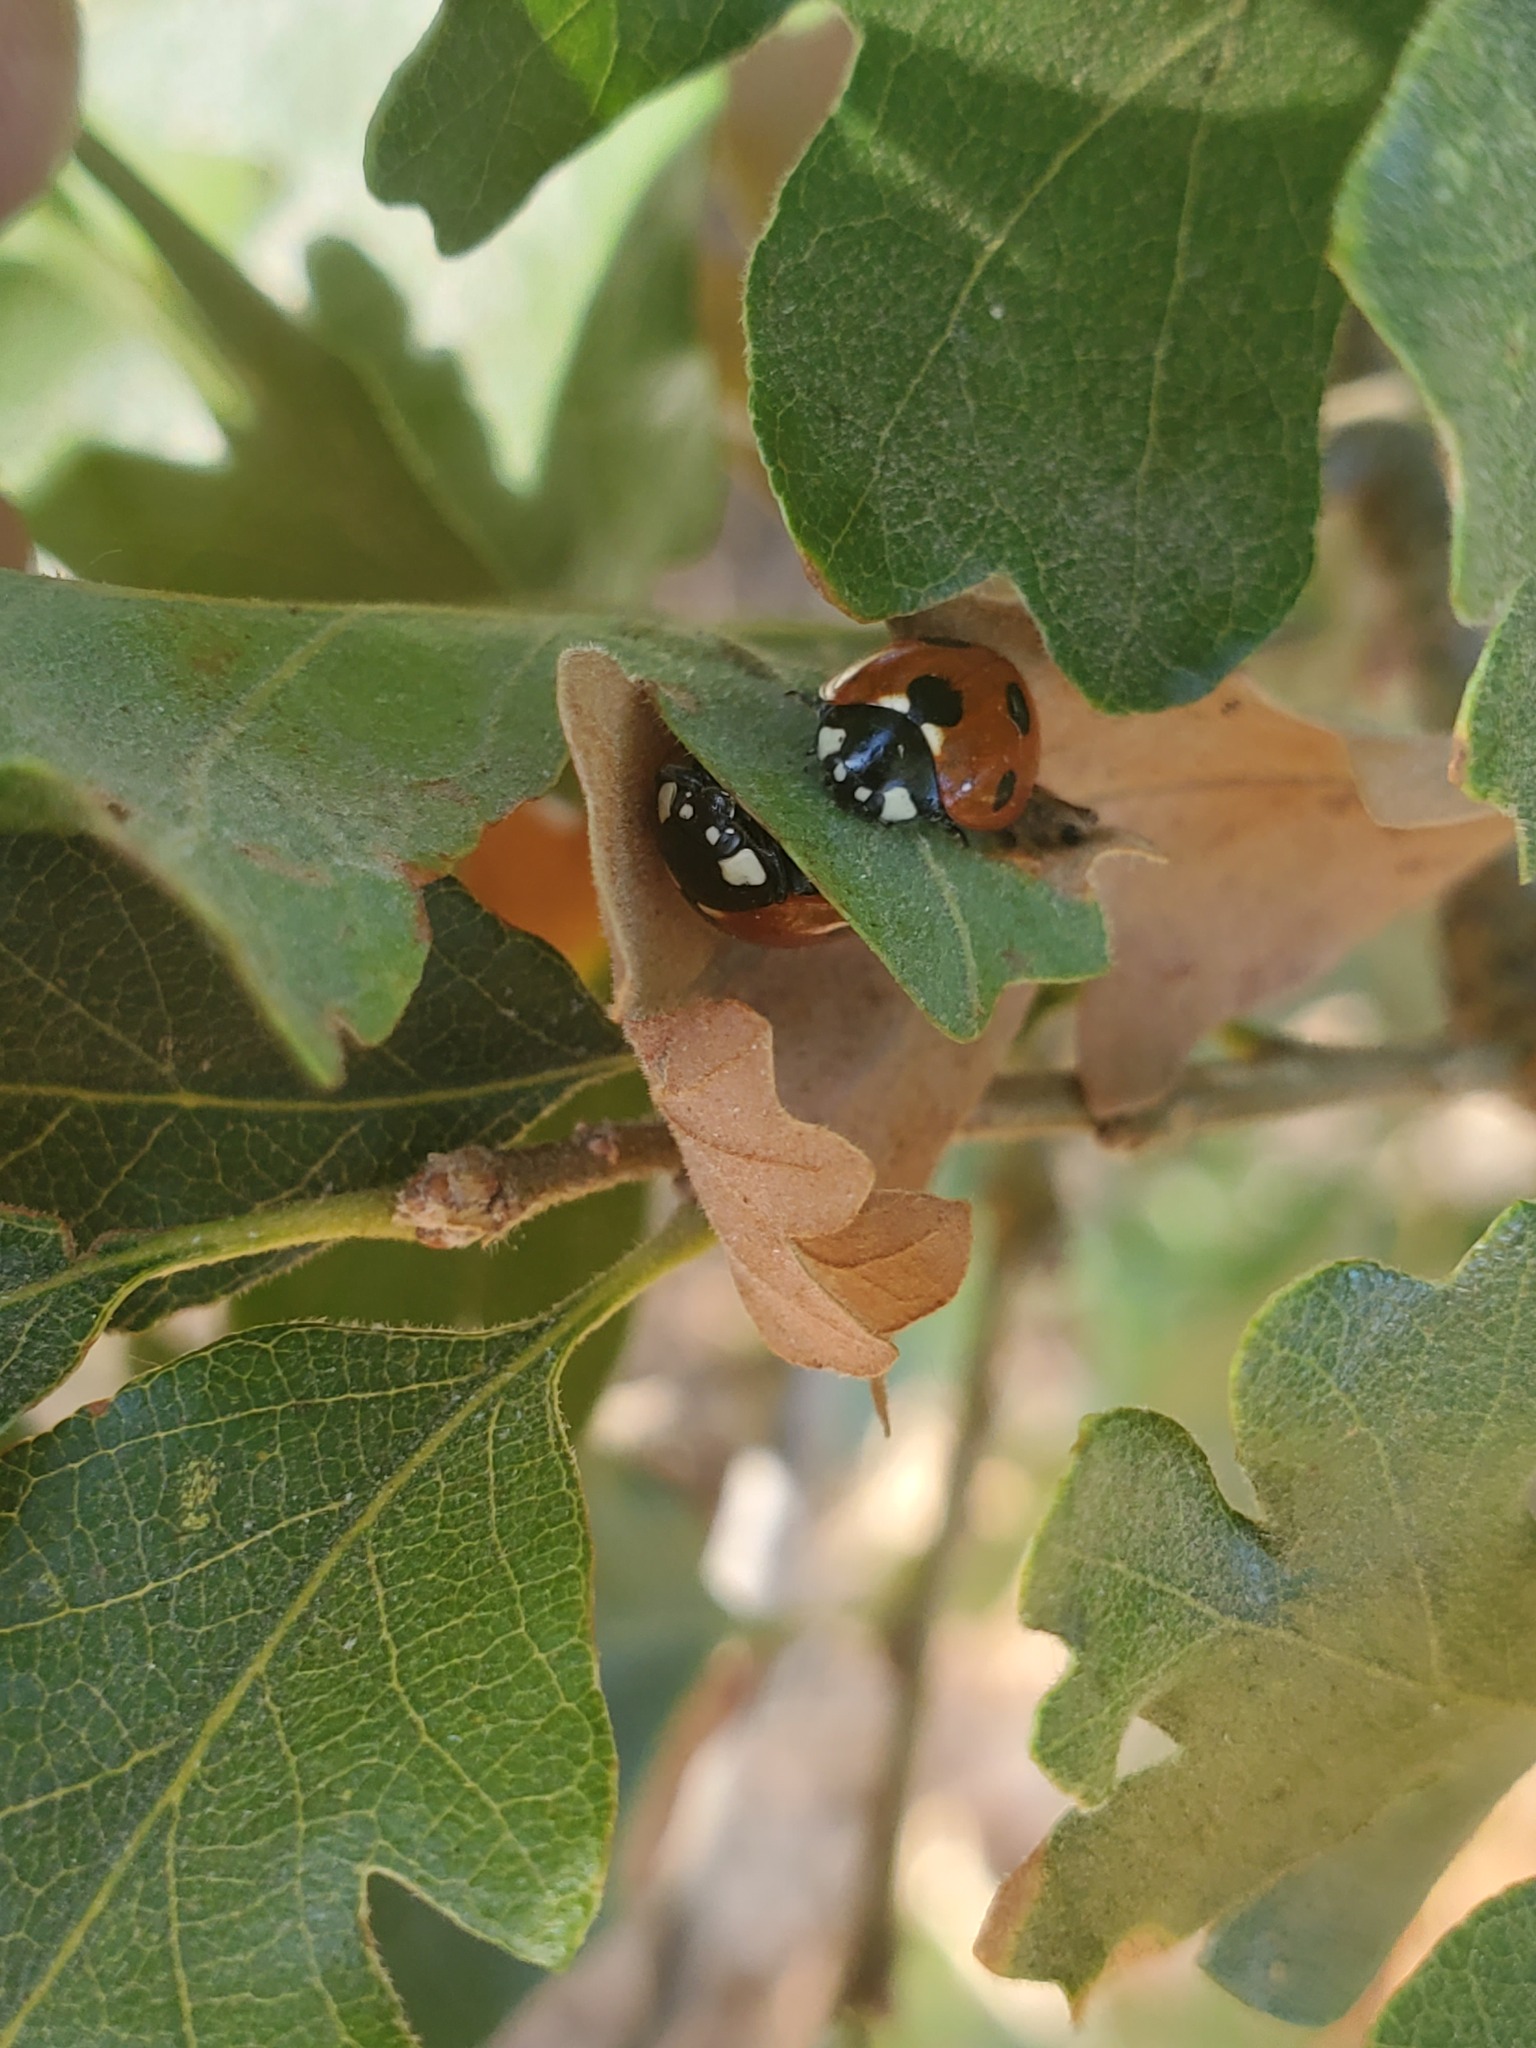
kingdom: Animalia
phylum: Arthropoda
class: Insecta
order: Coleoptera
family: Coccinellidae
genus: Coccinella
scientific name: Coccinella septempunctata
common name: Sevenspotted lady beetle
